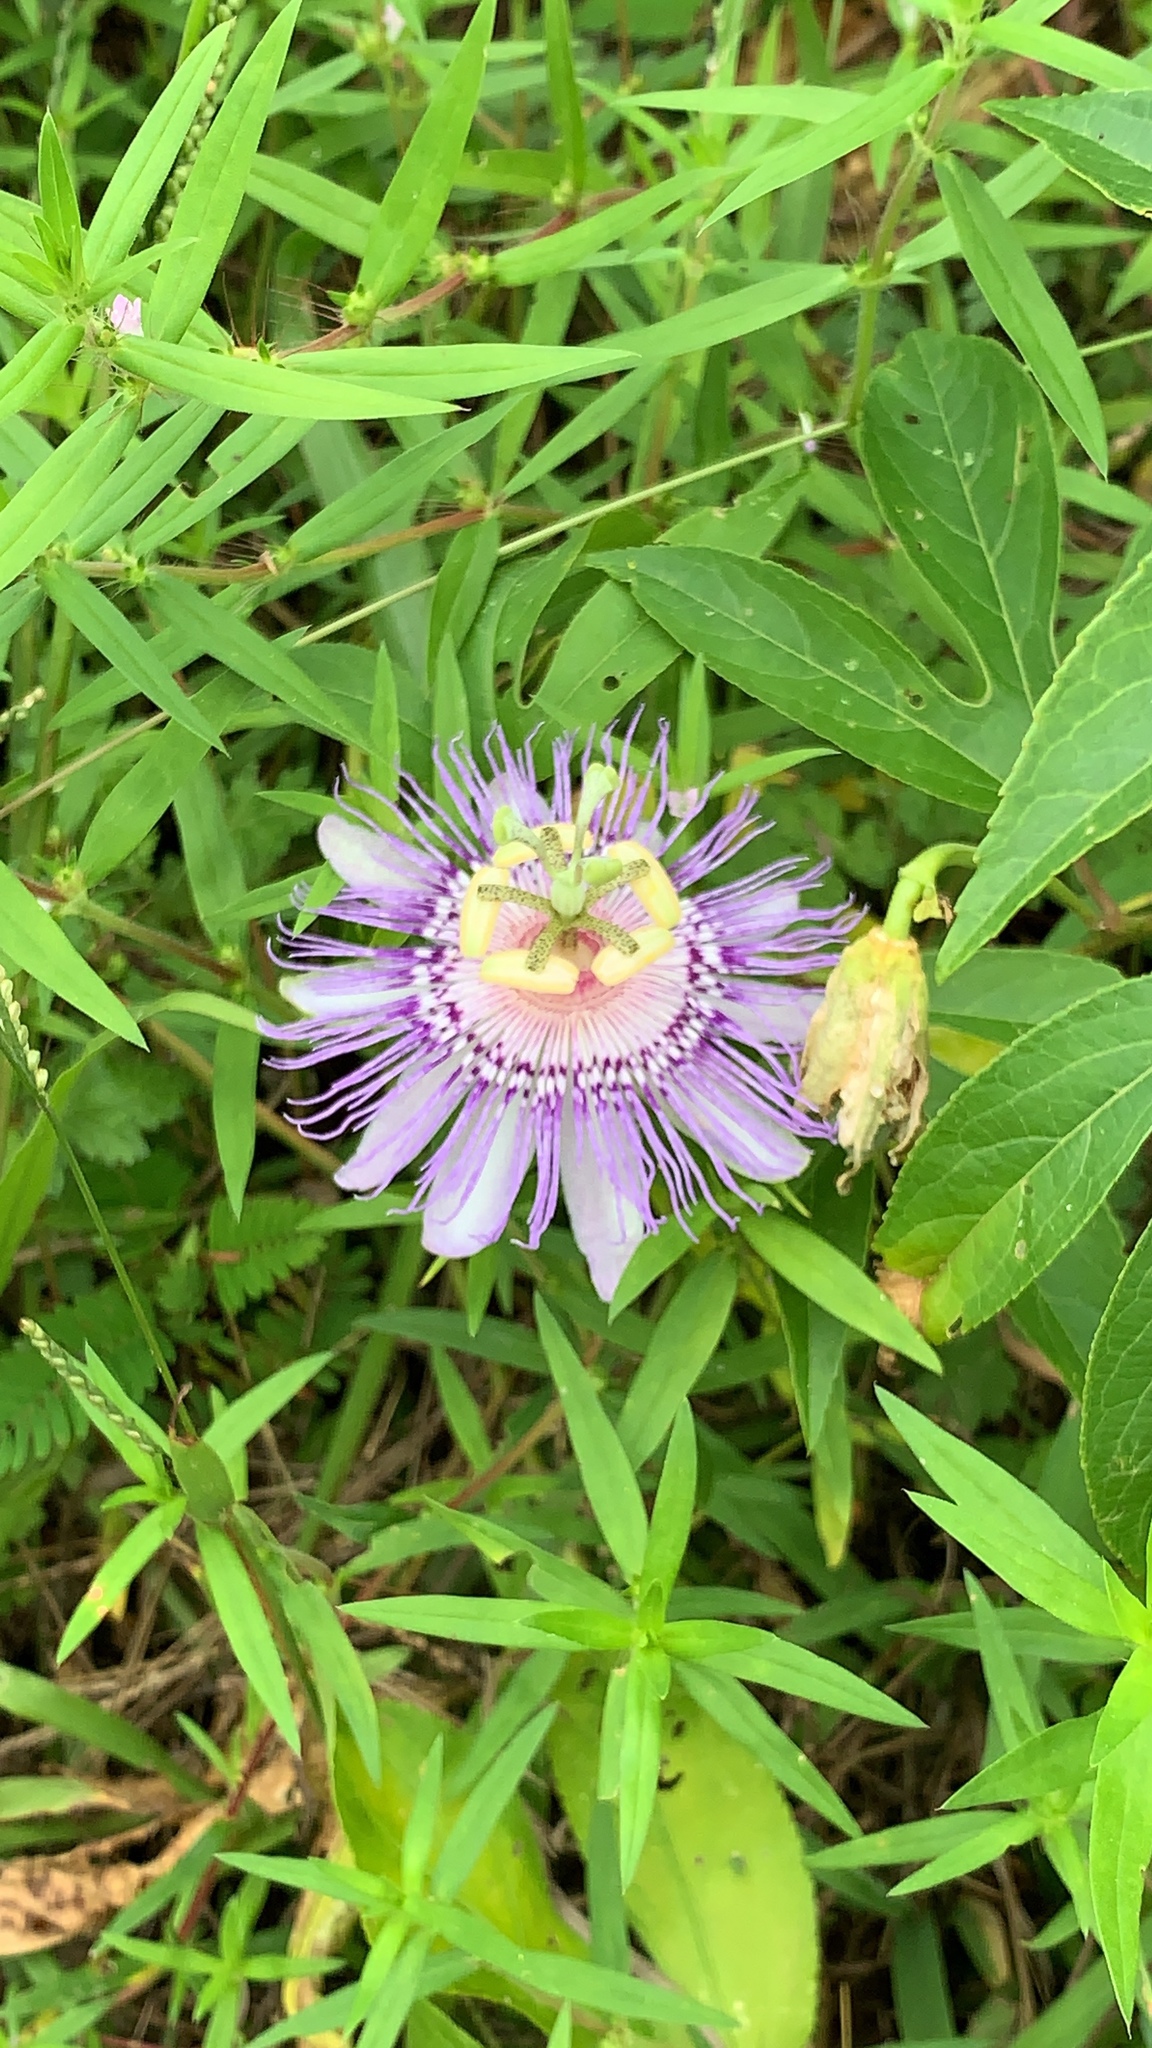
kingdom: Plantae
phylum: Tracheophyta
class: Magnoliopsida
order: Malpighiales
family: Passifloraceae
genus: Passiflora
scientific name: Passiflora incarnata
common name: Apricot-vine
